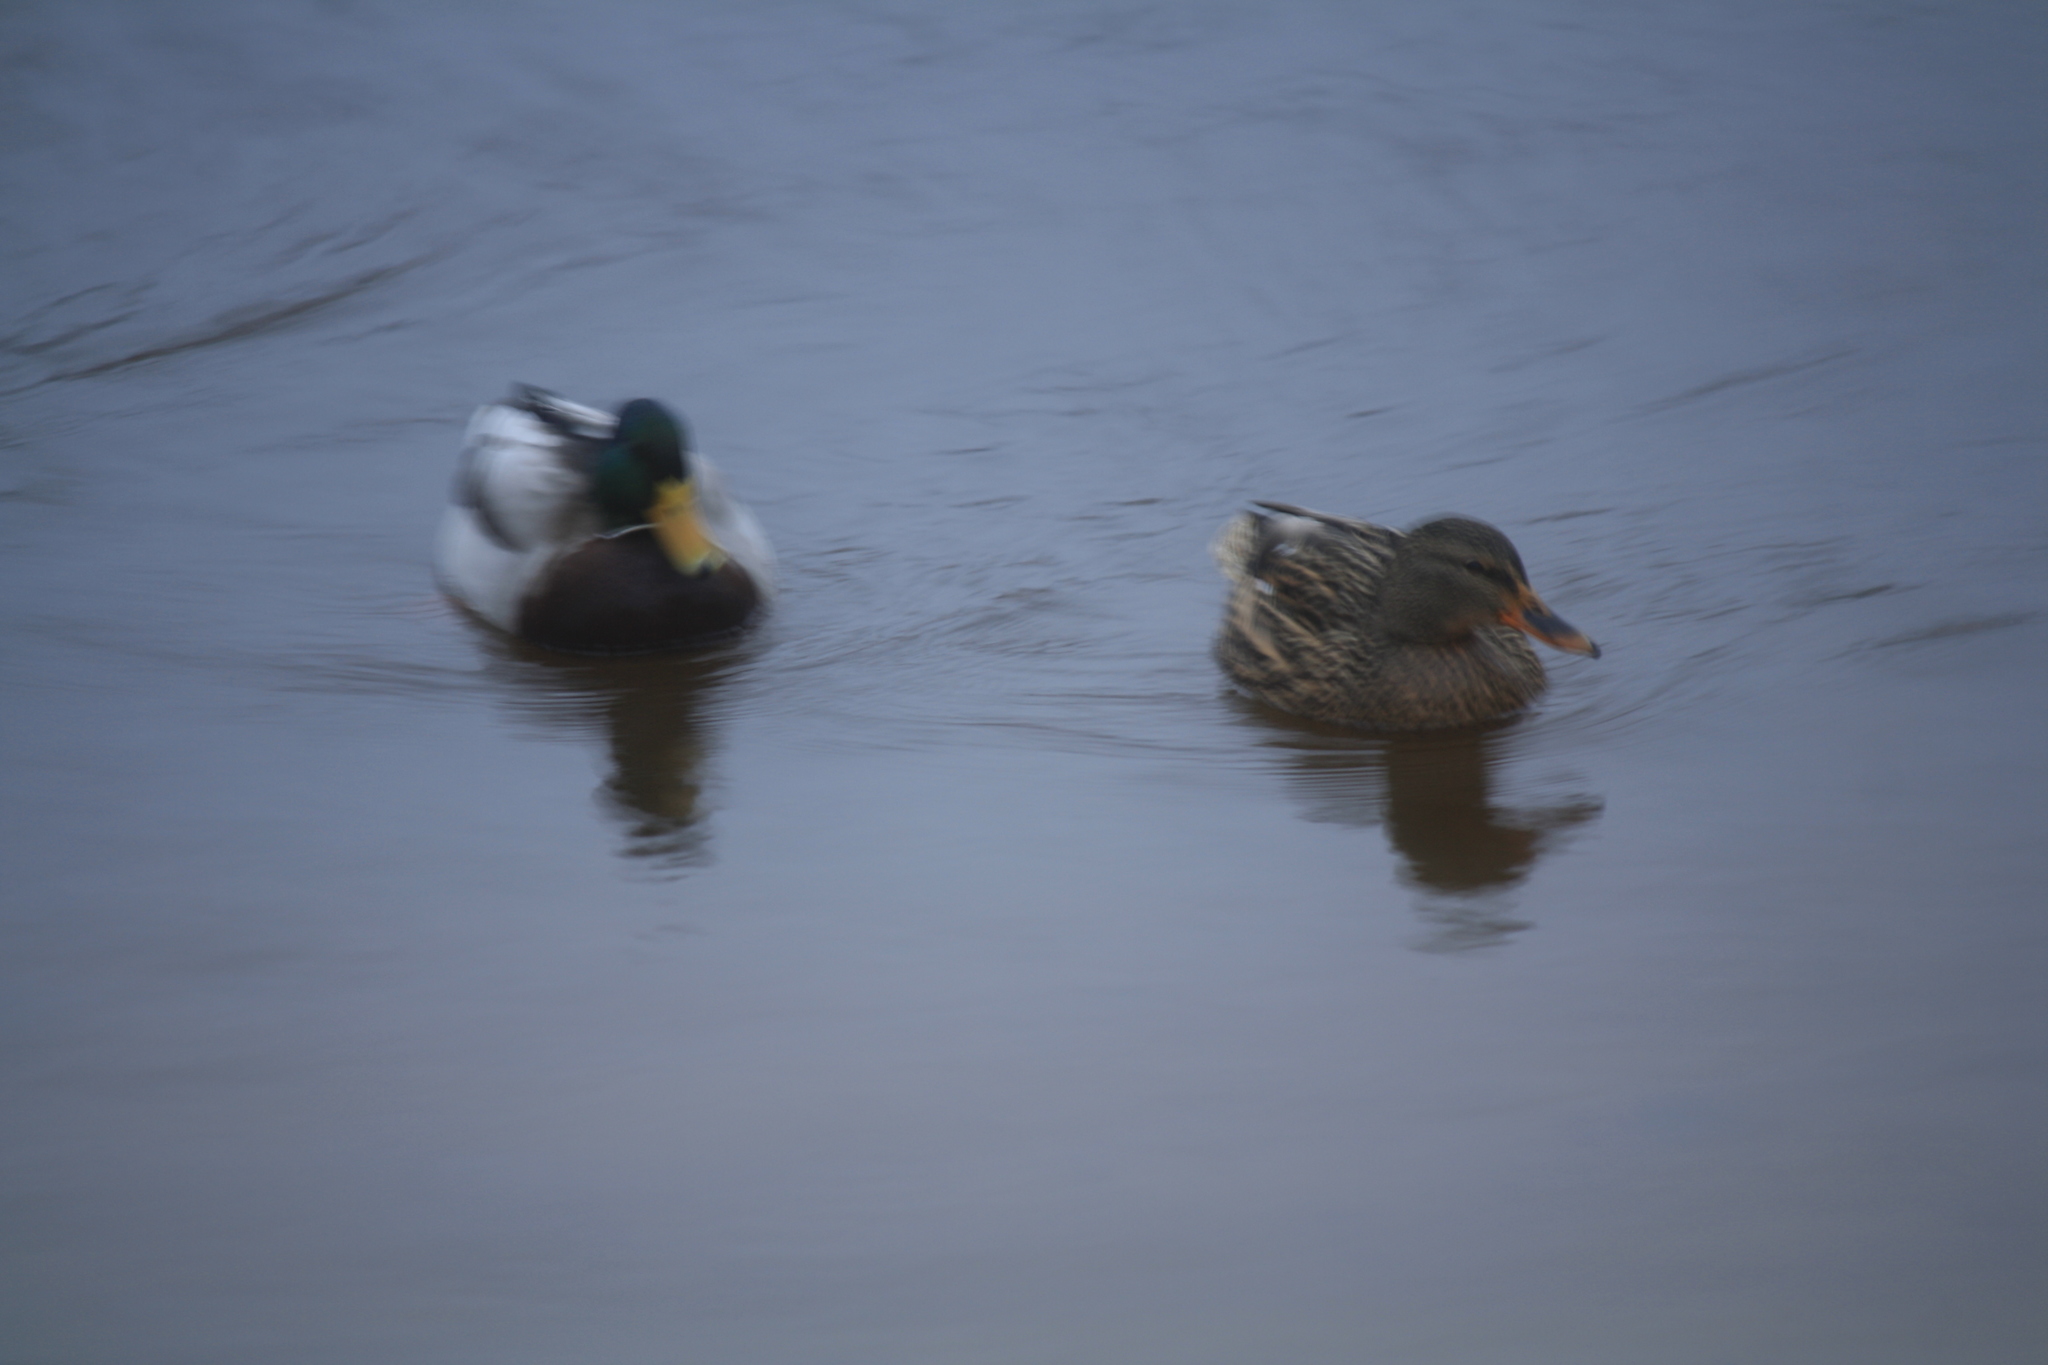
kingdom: Animalia
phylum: Chordata
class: Aves
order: Anseriformes
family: Anatidae
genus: Anas
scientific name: Anas platyrhynchos
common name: Mallard
